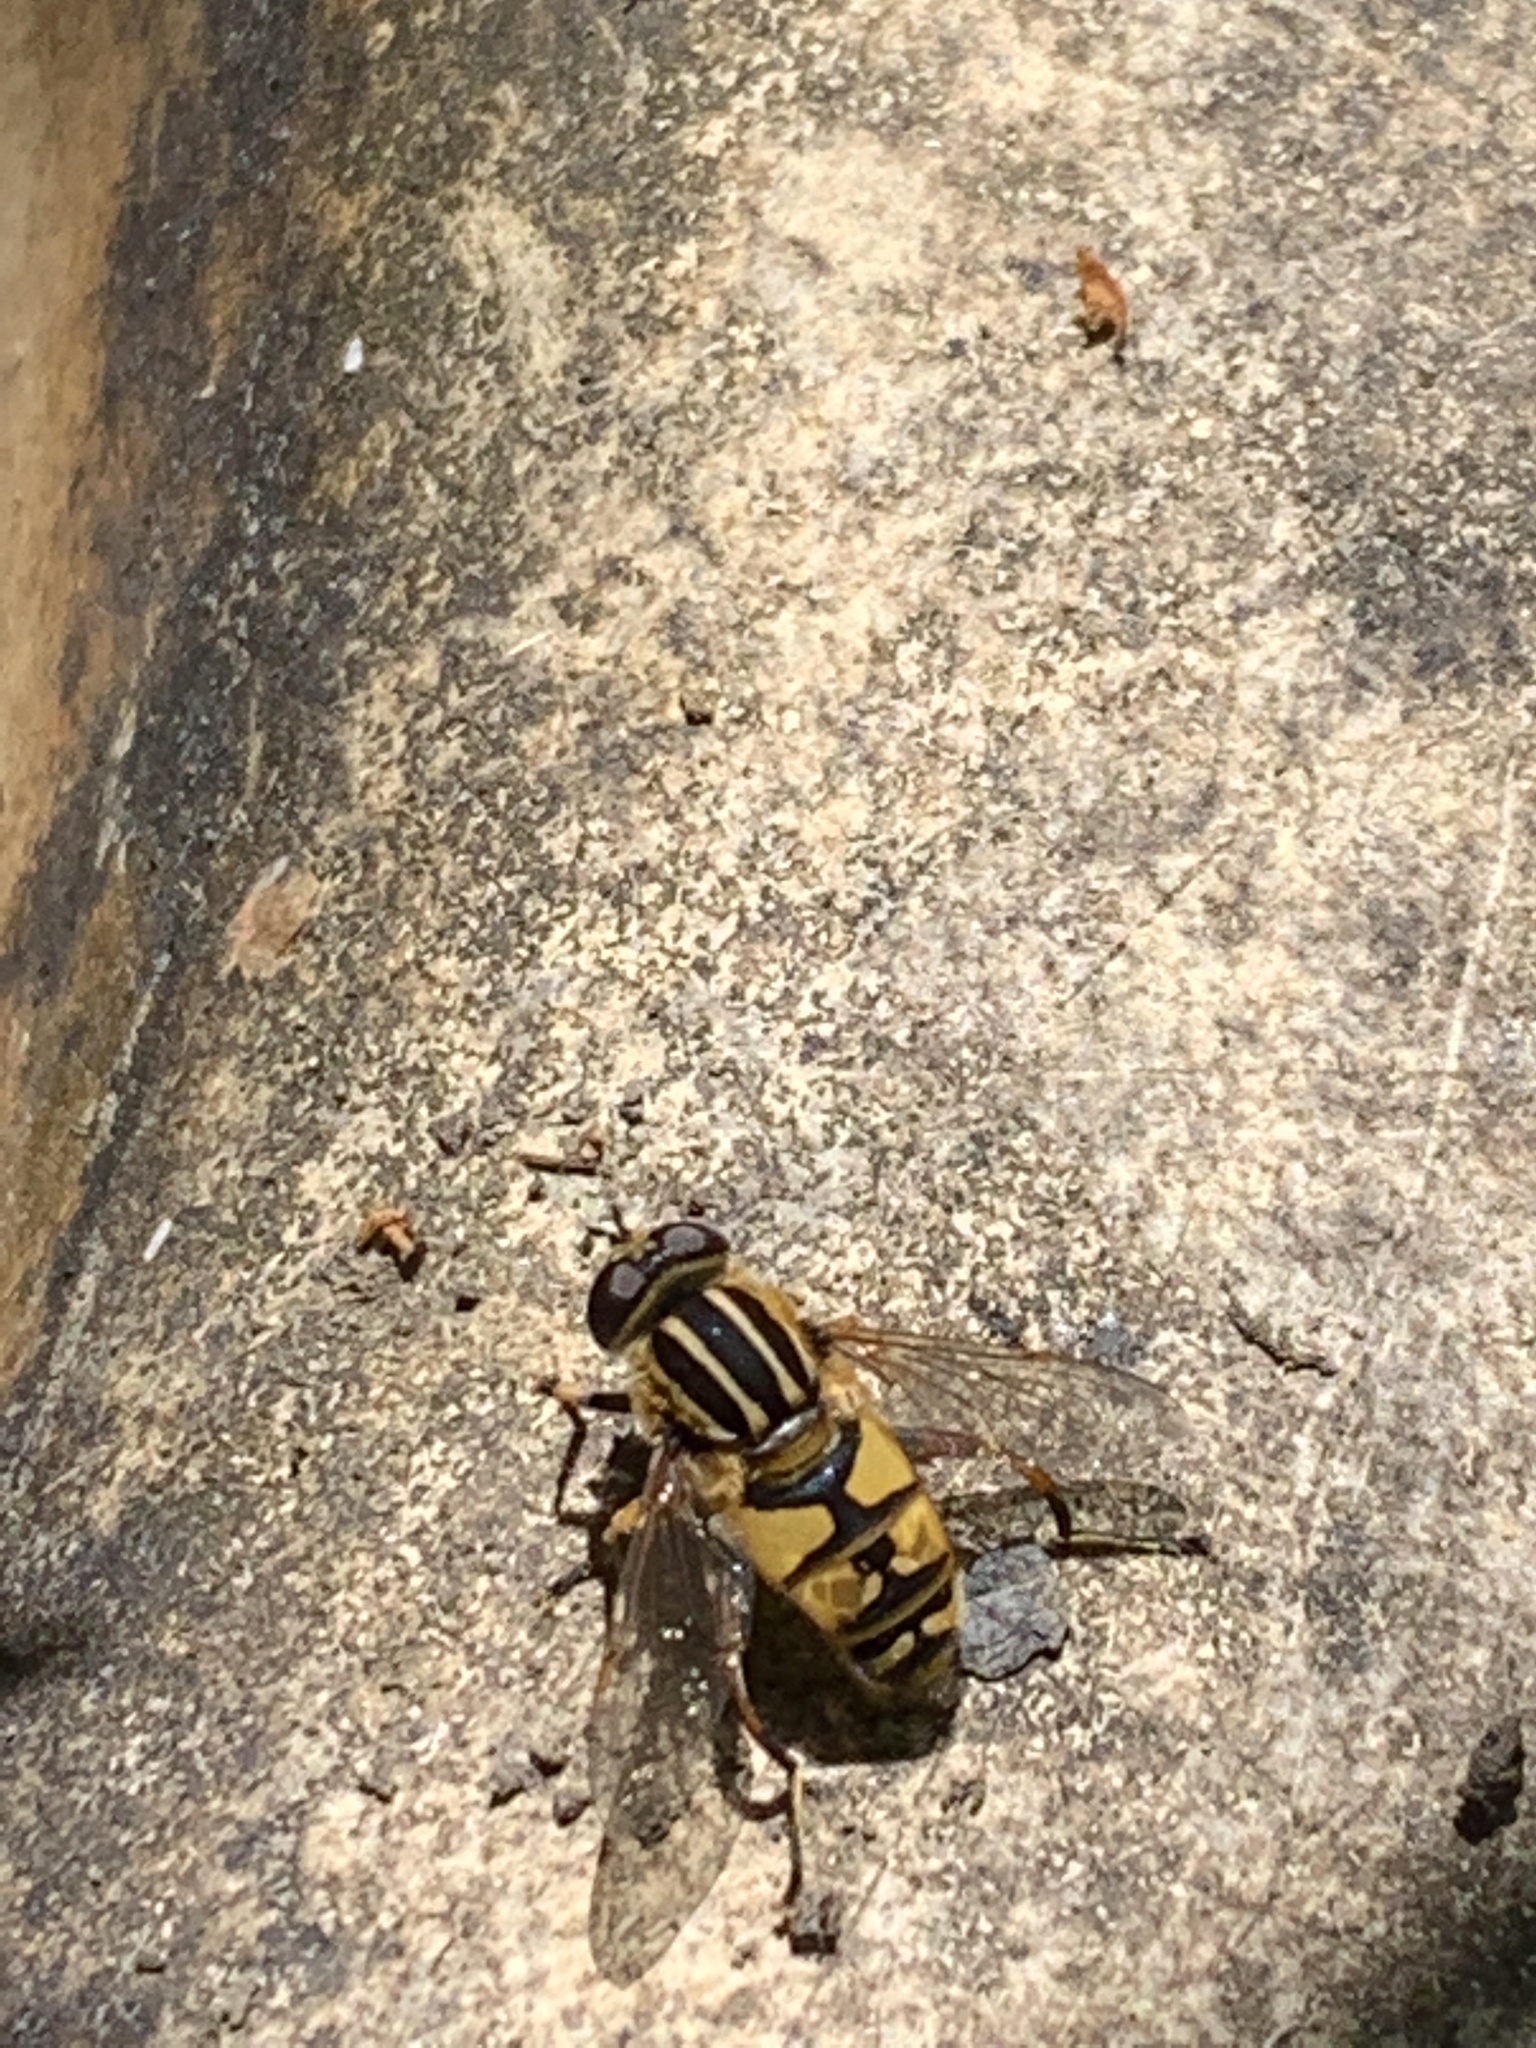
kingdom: Animalia
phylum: Arthropoda
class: Insecta
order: Diptera
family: Syrphidae
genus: Helophilus
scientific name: Helophilus pendulus
